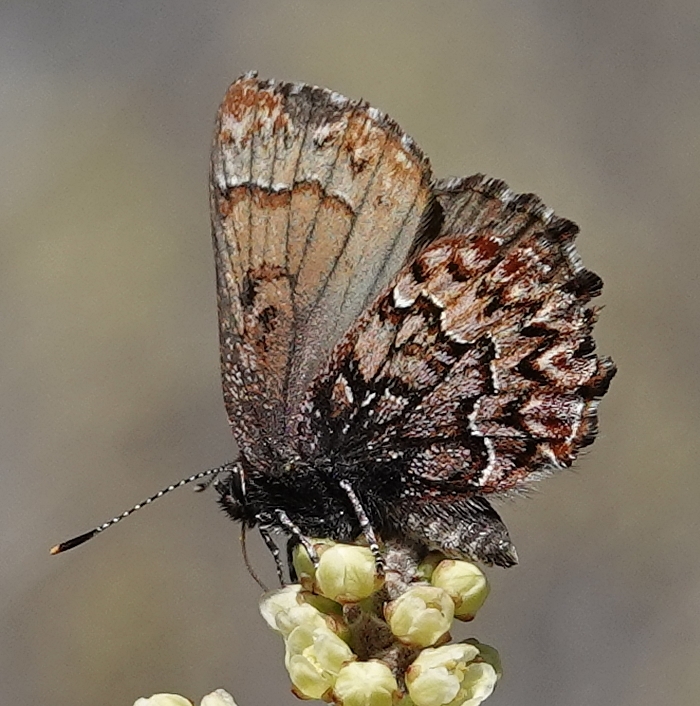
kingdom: Animalia
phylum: Arthropoda
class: Insecta
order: Lepidoptera
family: Lycaenidae
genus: Incisalia
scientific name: Incisalia eryphon
